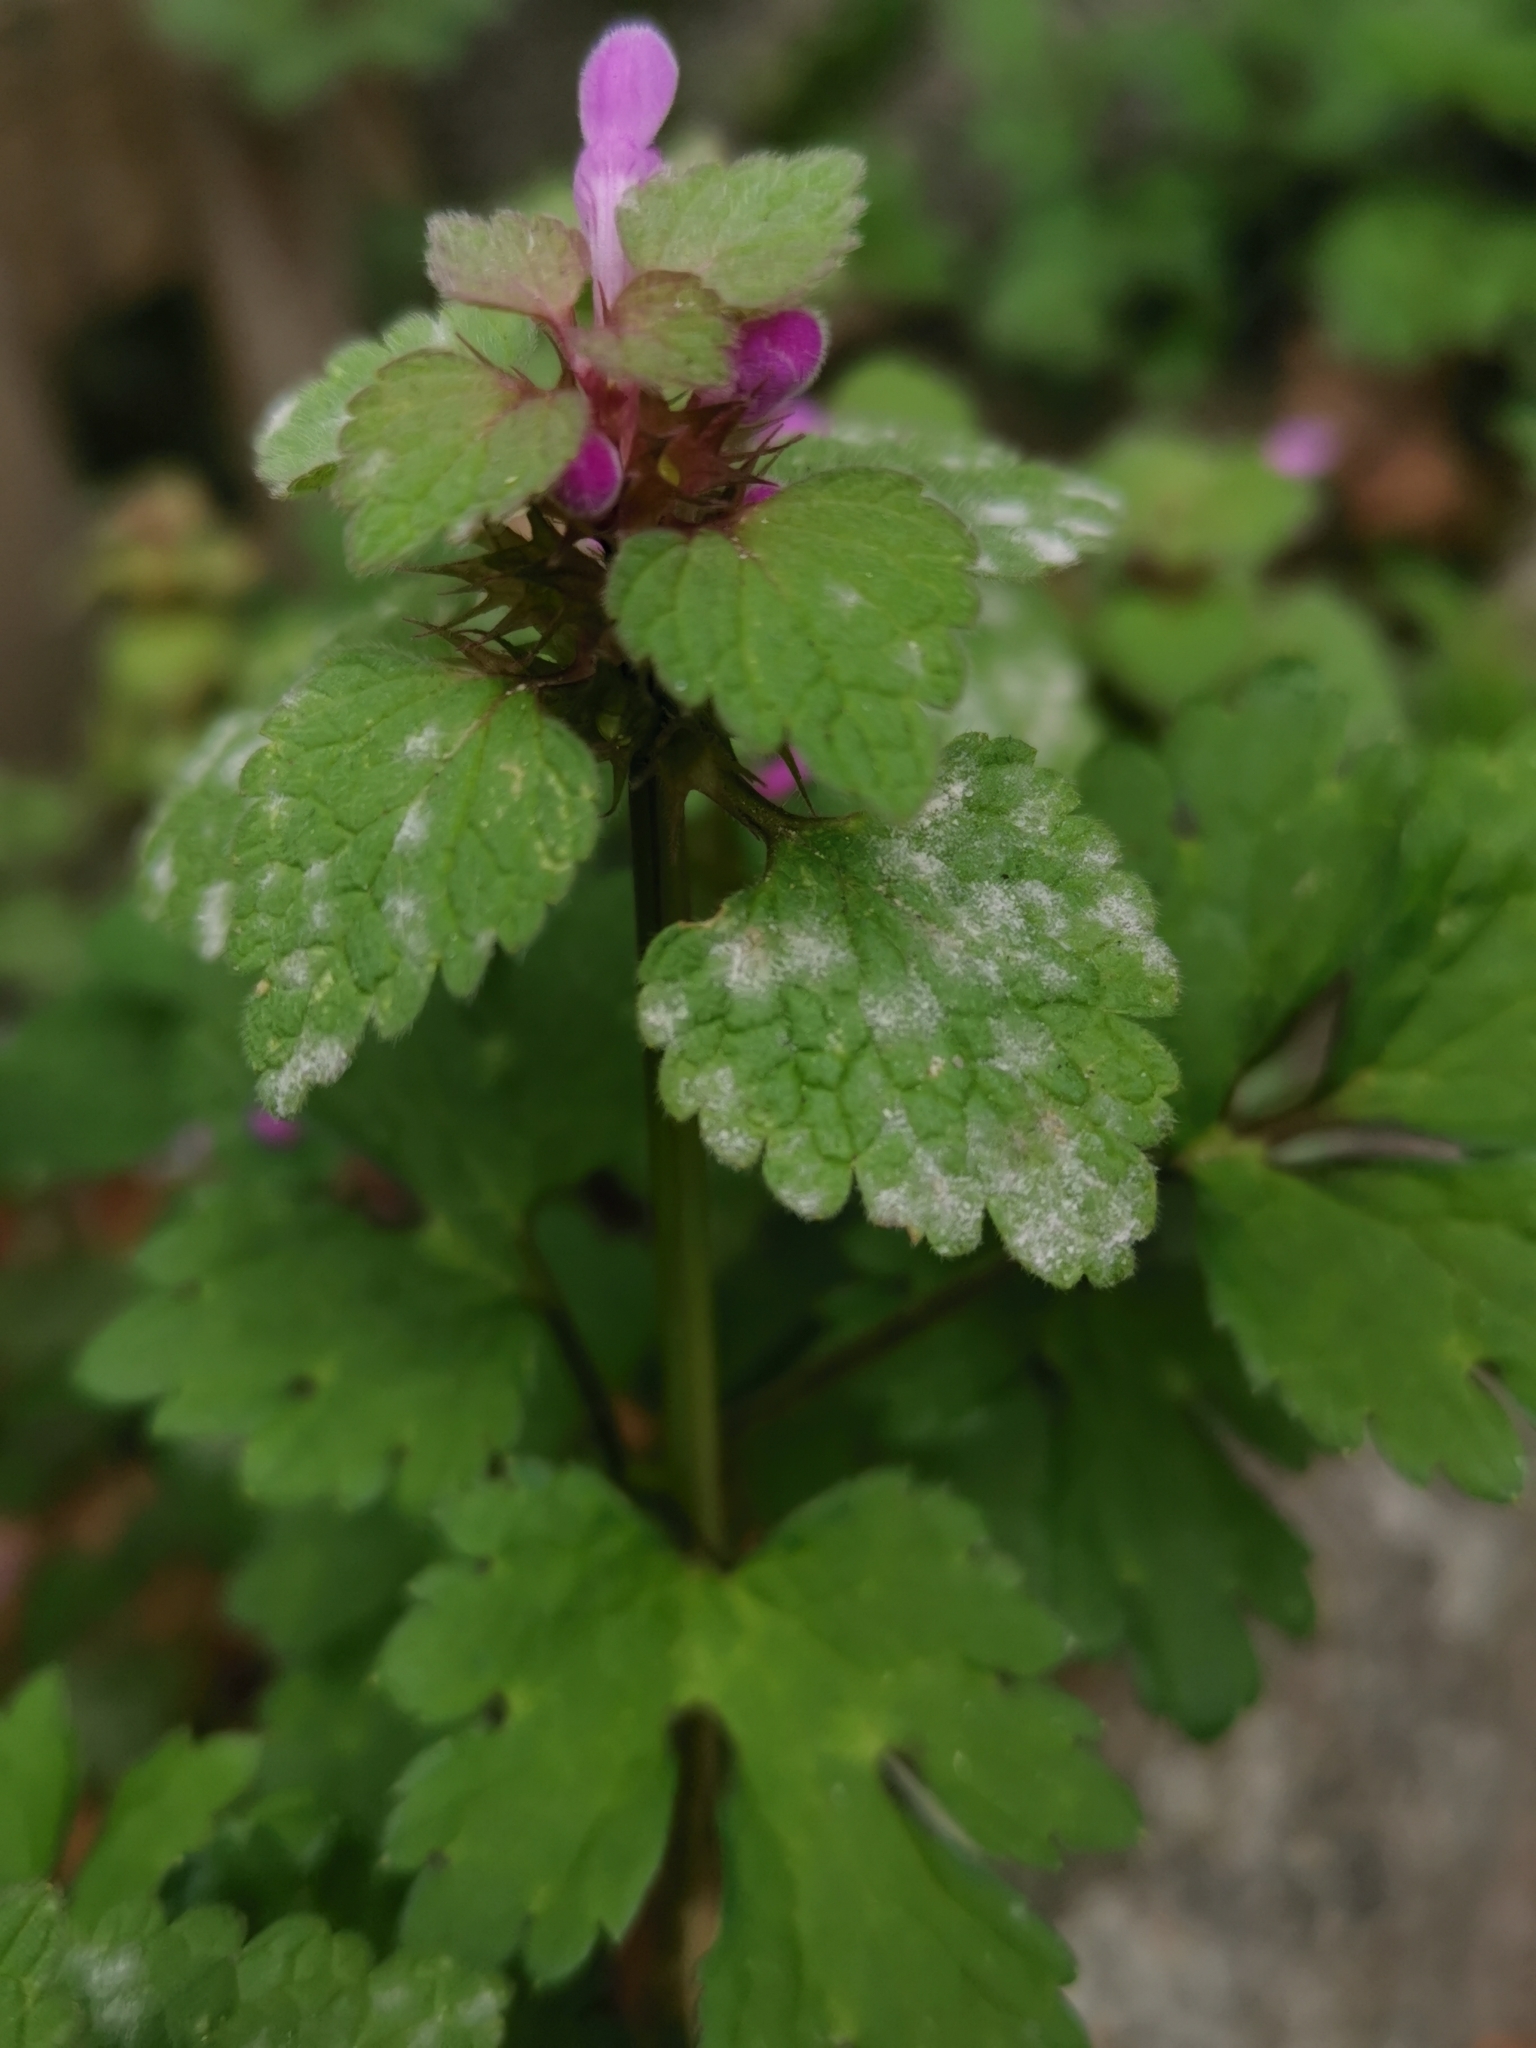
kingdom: Fungi
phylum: Ascomycota
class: Leotiomycetes
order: Helotiales
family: Erysiphaceae
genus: Neoerysiphe
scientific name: Neoerysiphe galeopsidis
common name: Mint mildew
